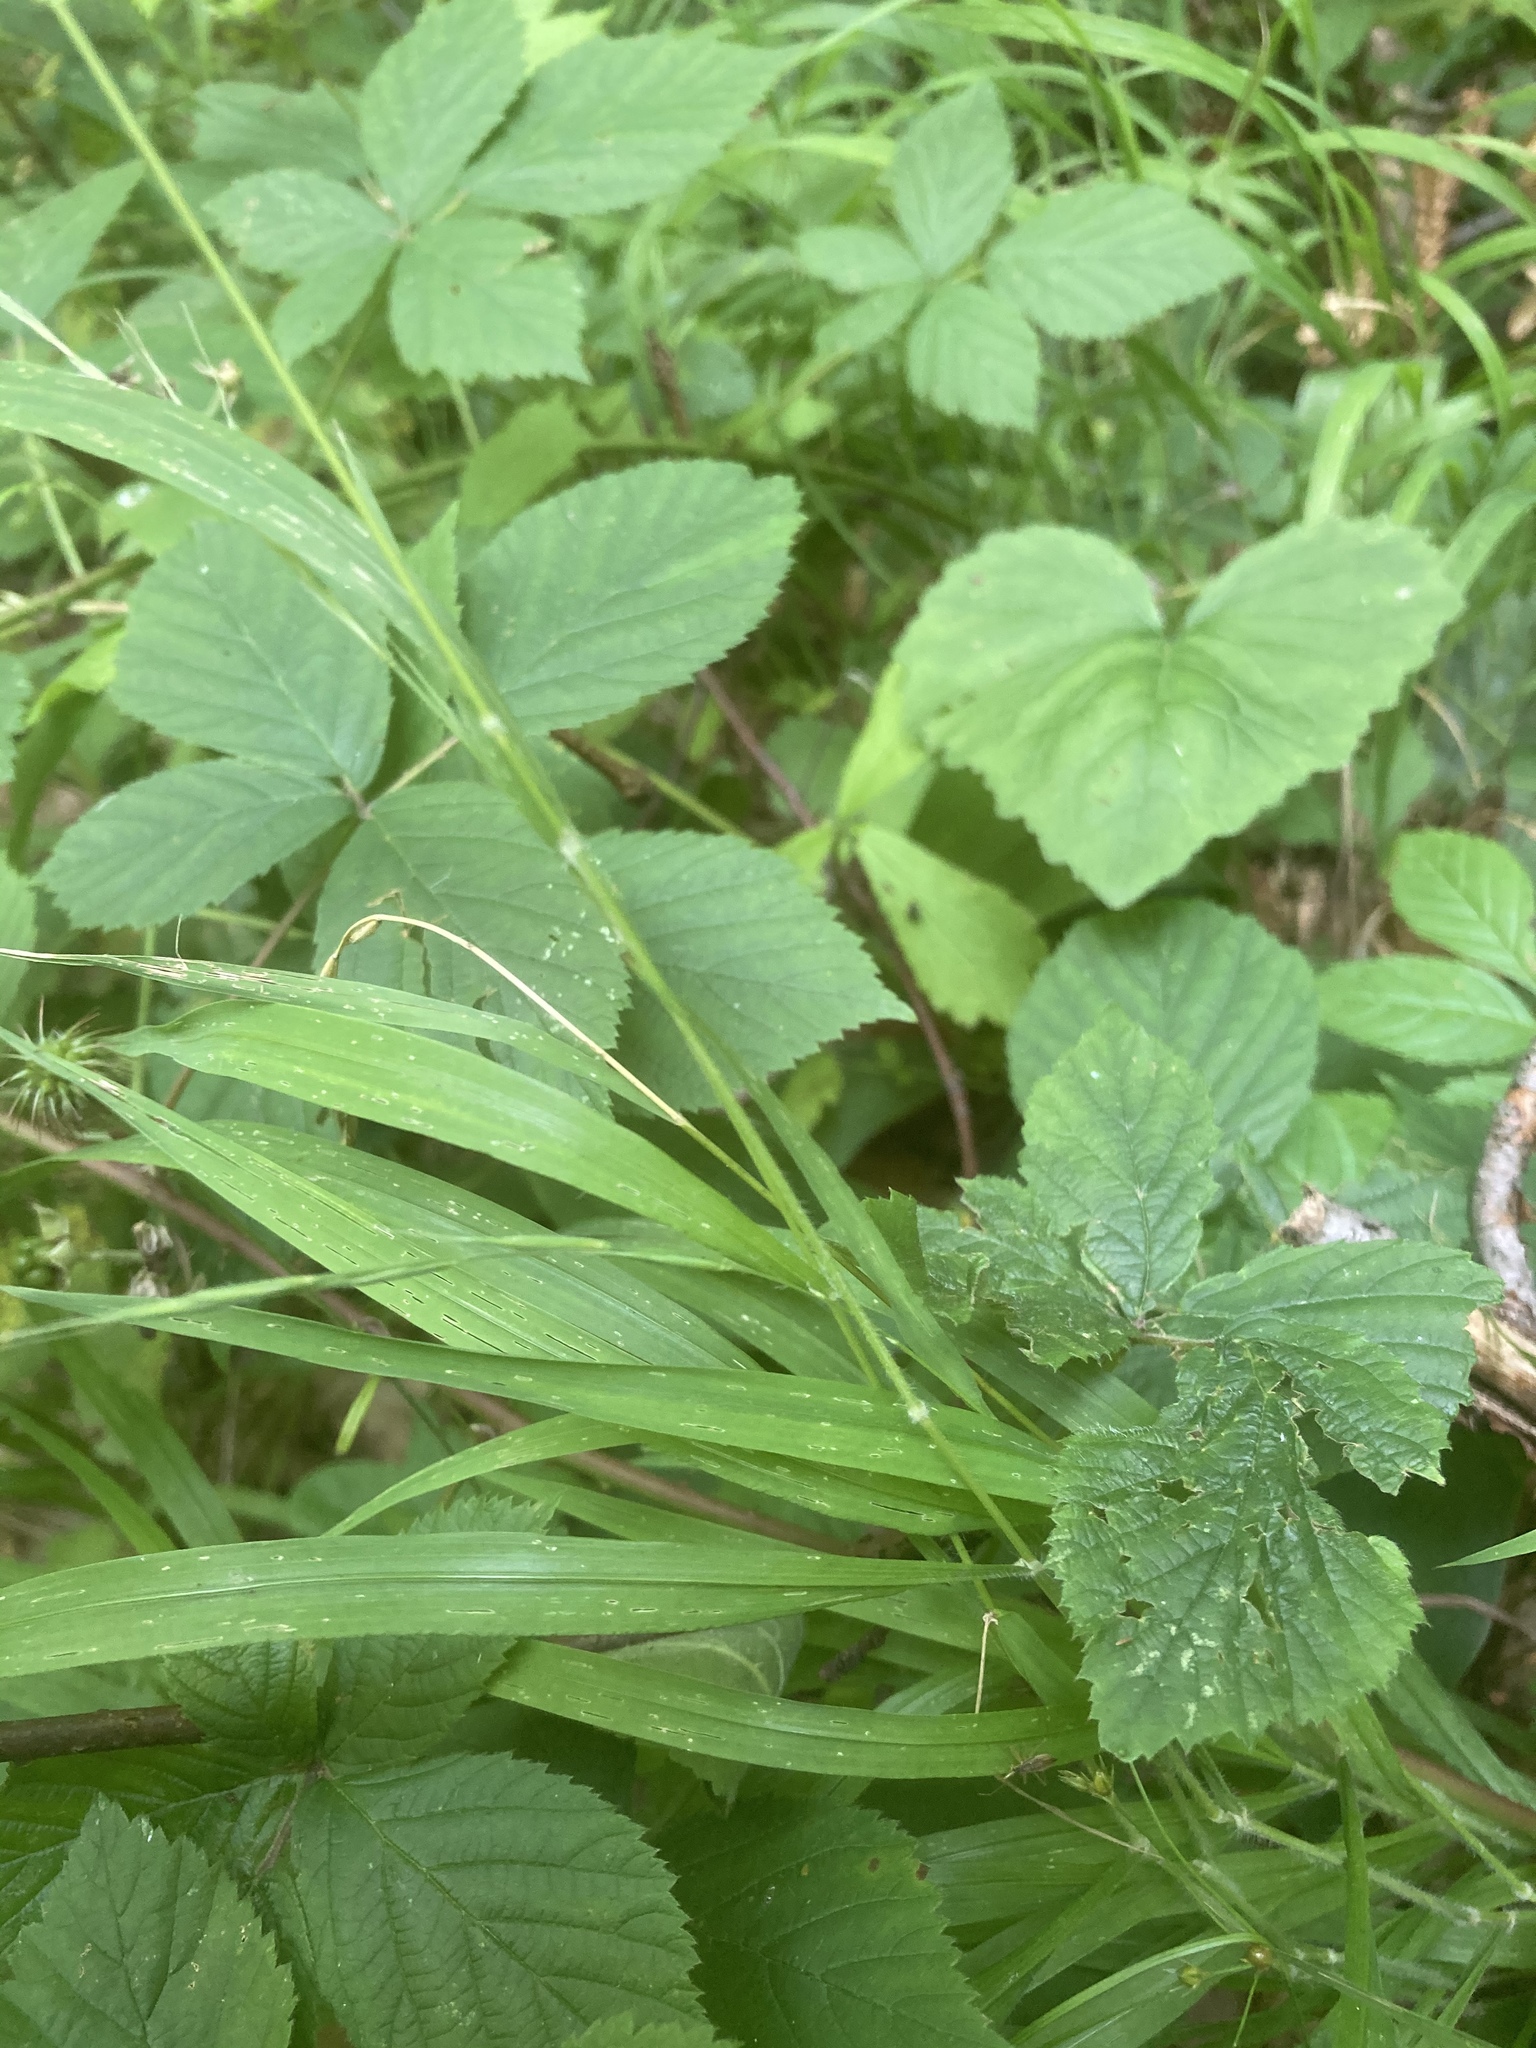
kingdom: Plantae
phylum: Tracheophyta
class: Liliopsida
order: Poales
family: Poaceae
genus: Brachypodium
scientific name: Brachypodium sylvaticum
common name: False-brome
